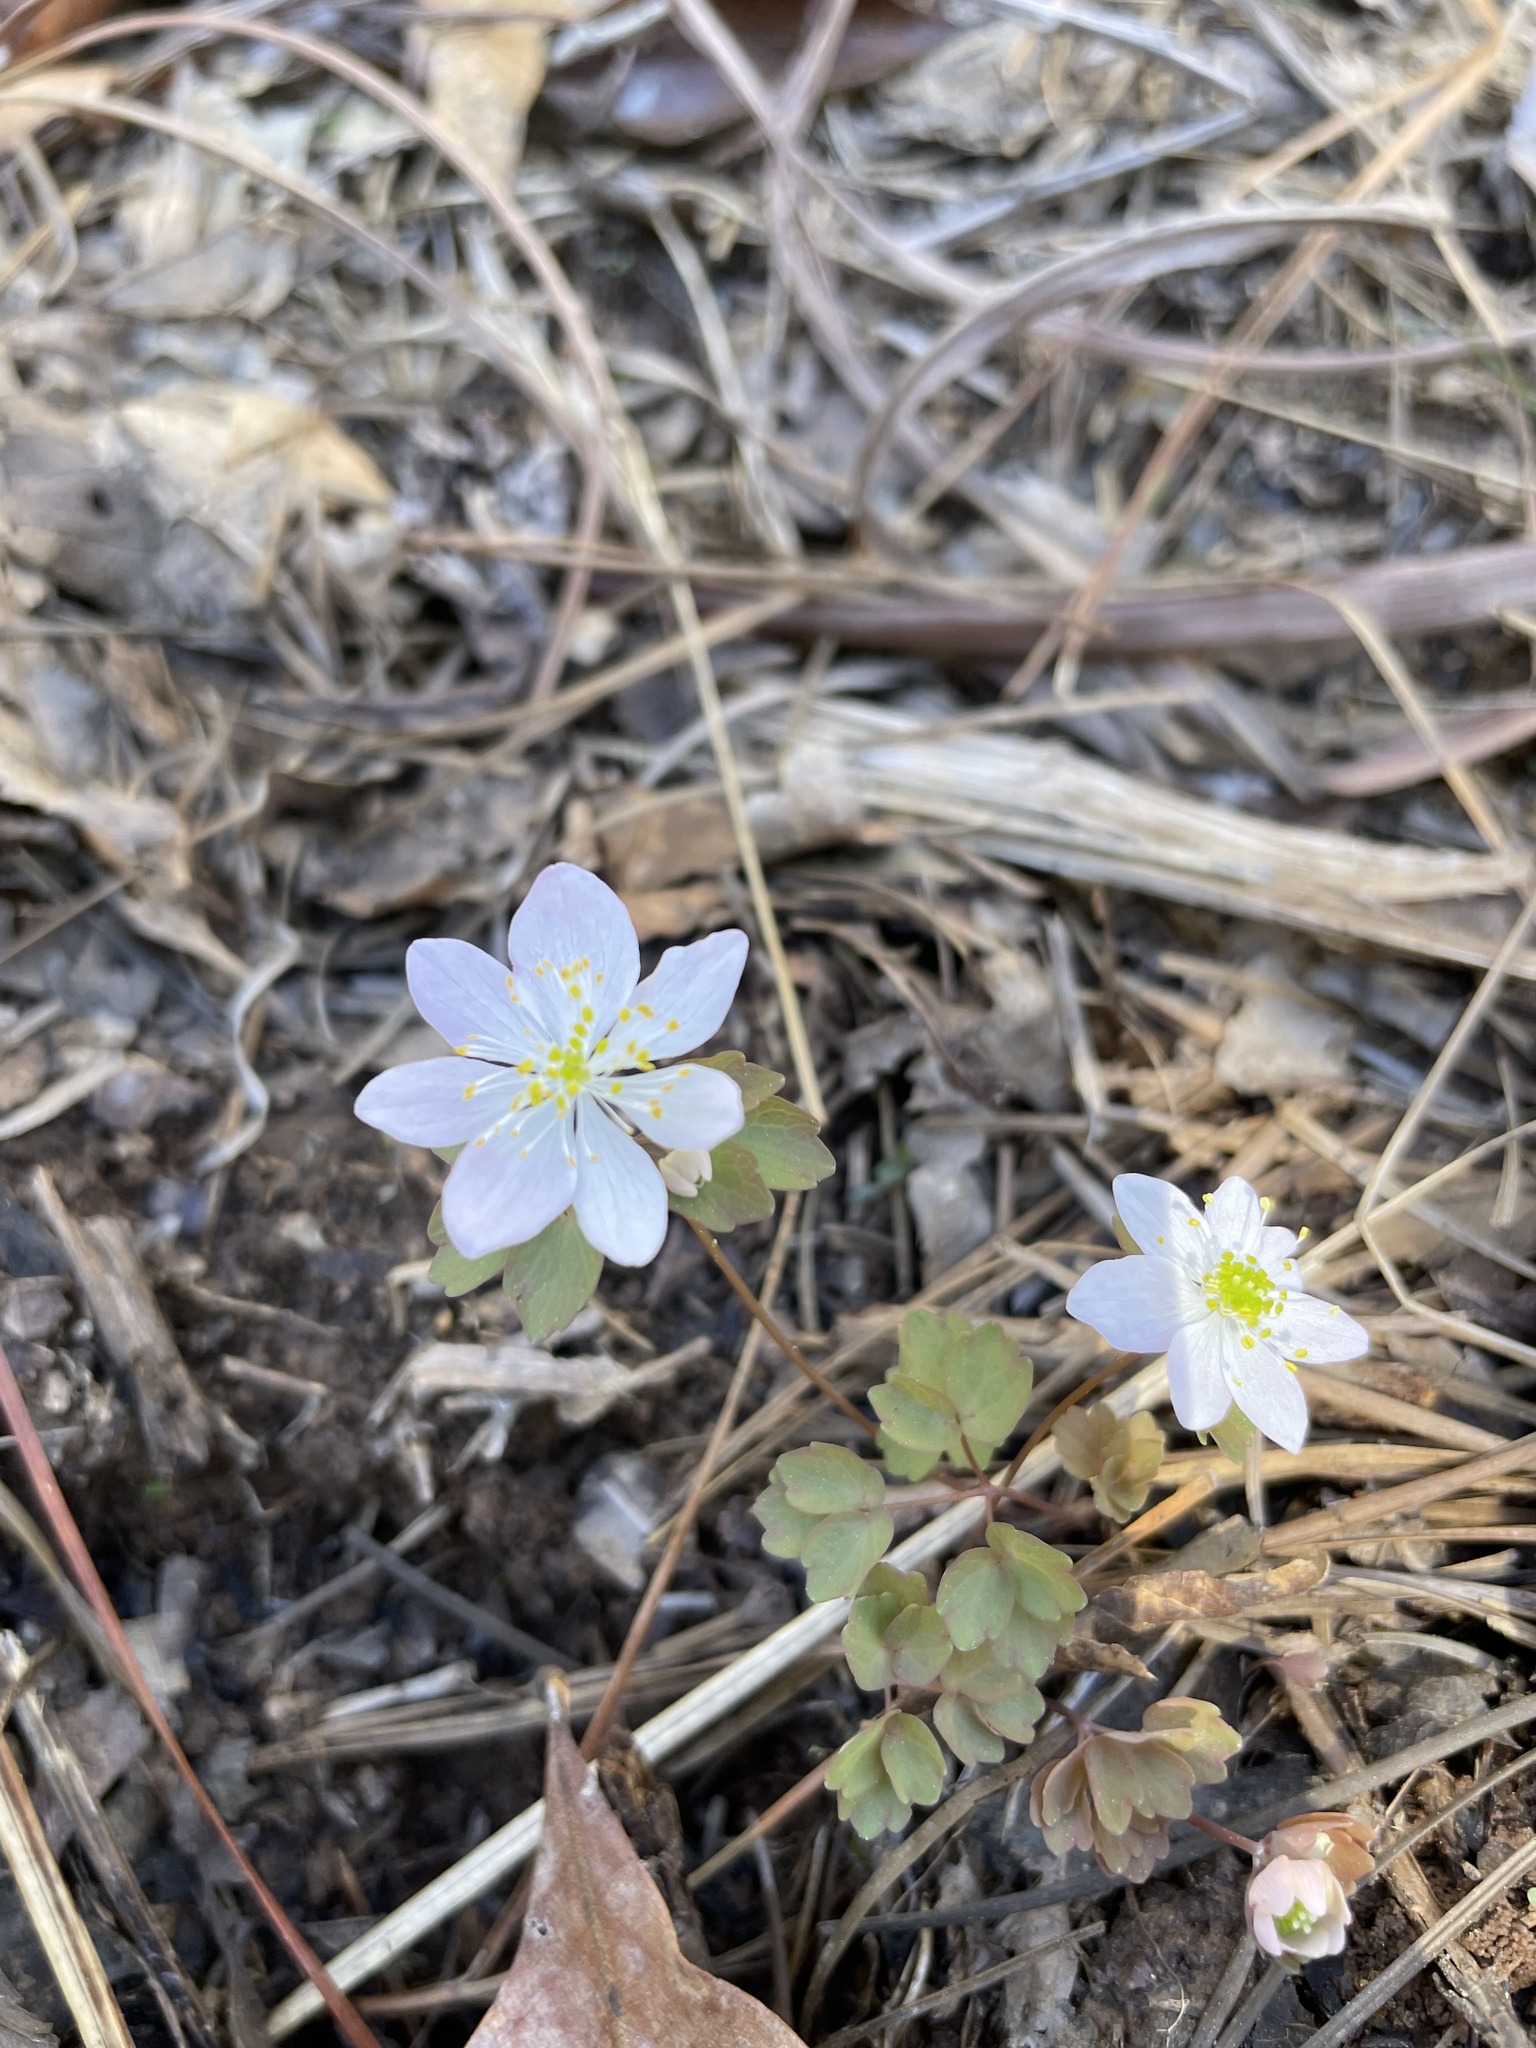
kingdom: Plantae
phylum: Tracheophyta
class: Magnoliopsida
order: Ranunculales
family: Ranunculaceae
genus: Thalictrum
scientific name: Thalictrum thalictroides
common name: Rue-anemone
